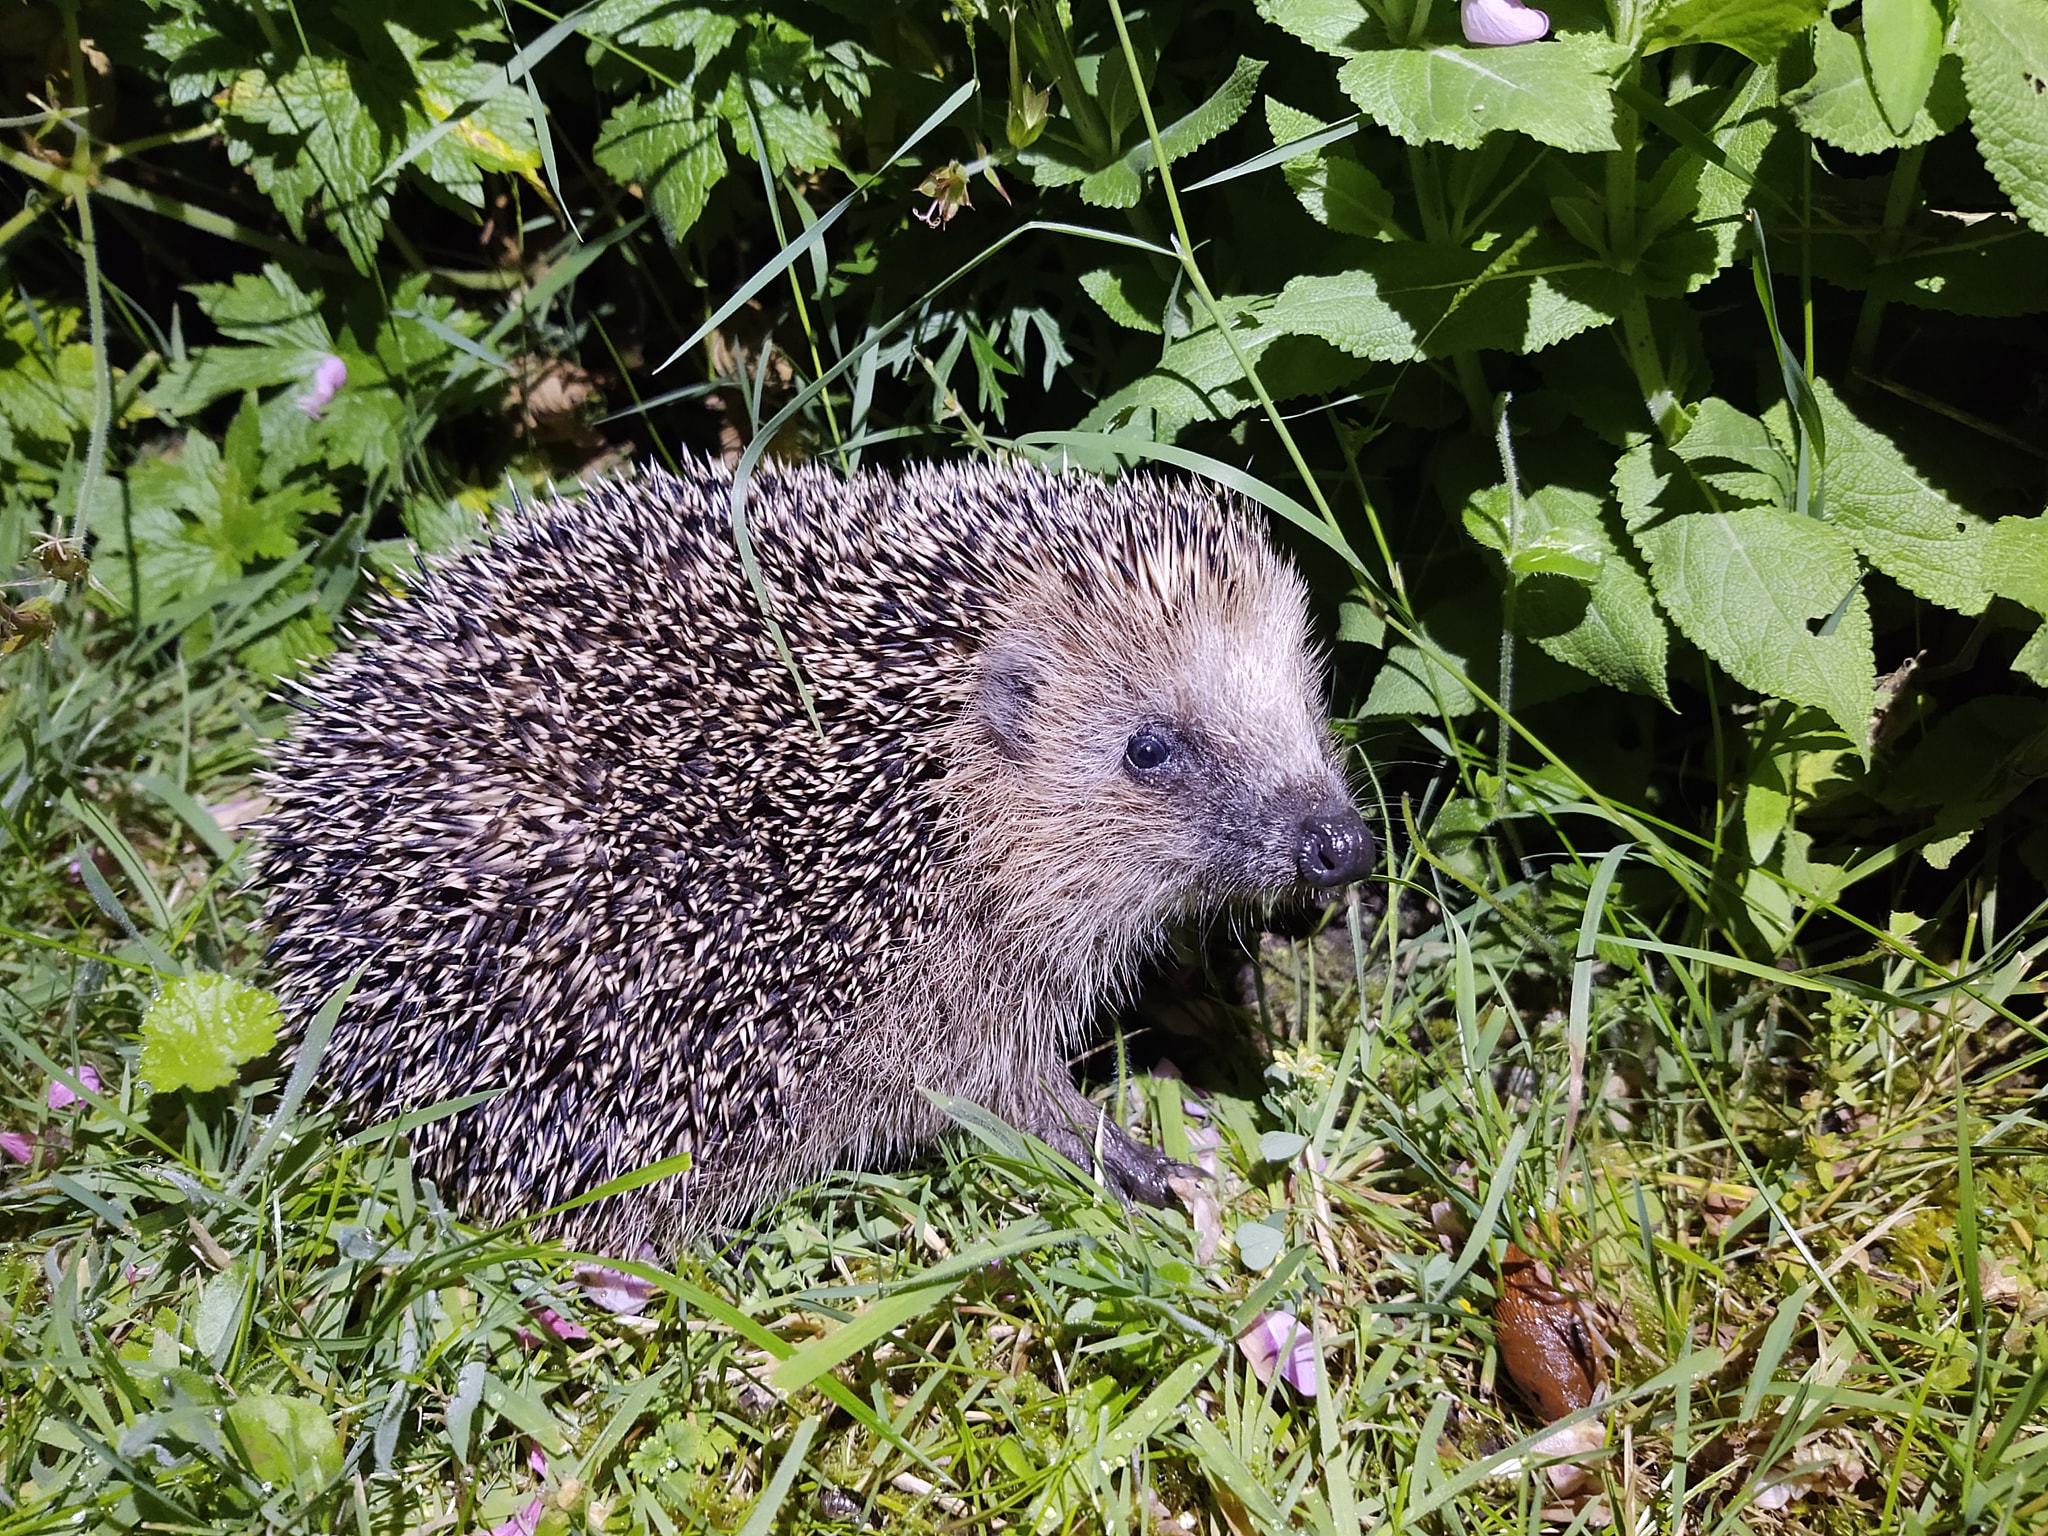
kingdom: Animalia
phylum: Chordata
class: Mammalia
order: Erinaceomorpha
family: Erinaceidae
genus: Erinaceus
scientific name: Erinaceus europaeus
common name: West european hedgehog
